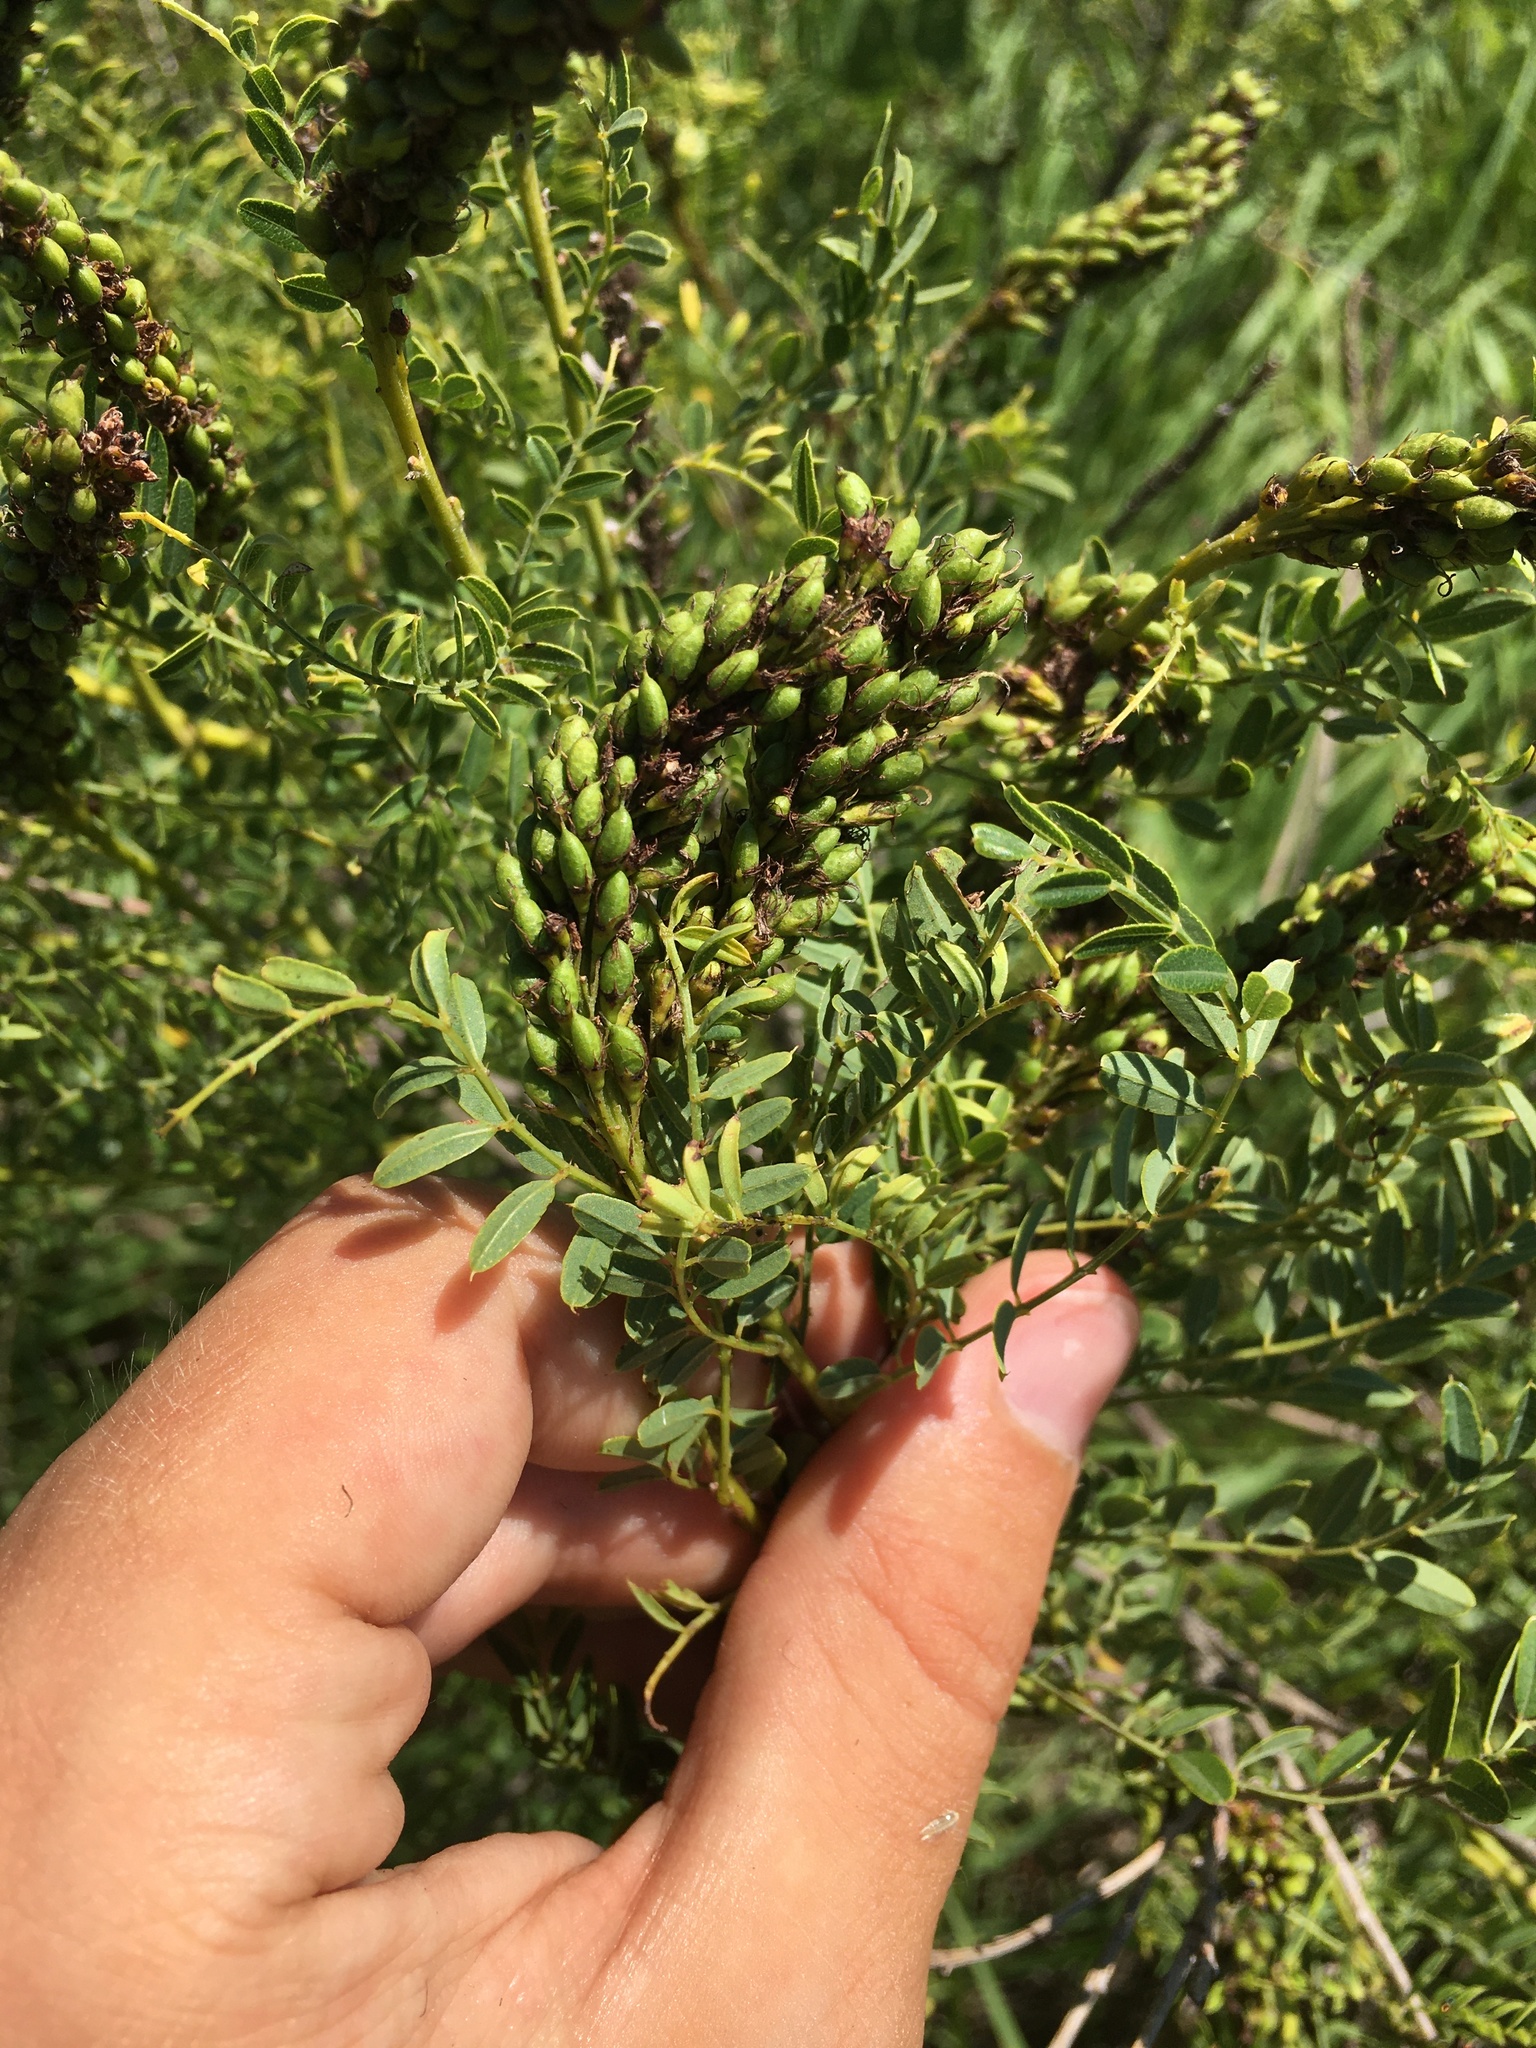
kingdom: Plantae
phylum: Tracheophyta
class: Magnoliopsida
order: Fabales
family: Fabaceae
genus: Amorpha
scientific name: Amorpha nana
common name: Fragrant false indigo
